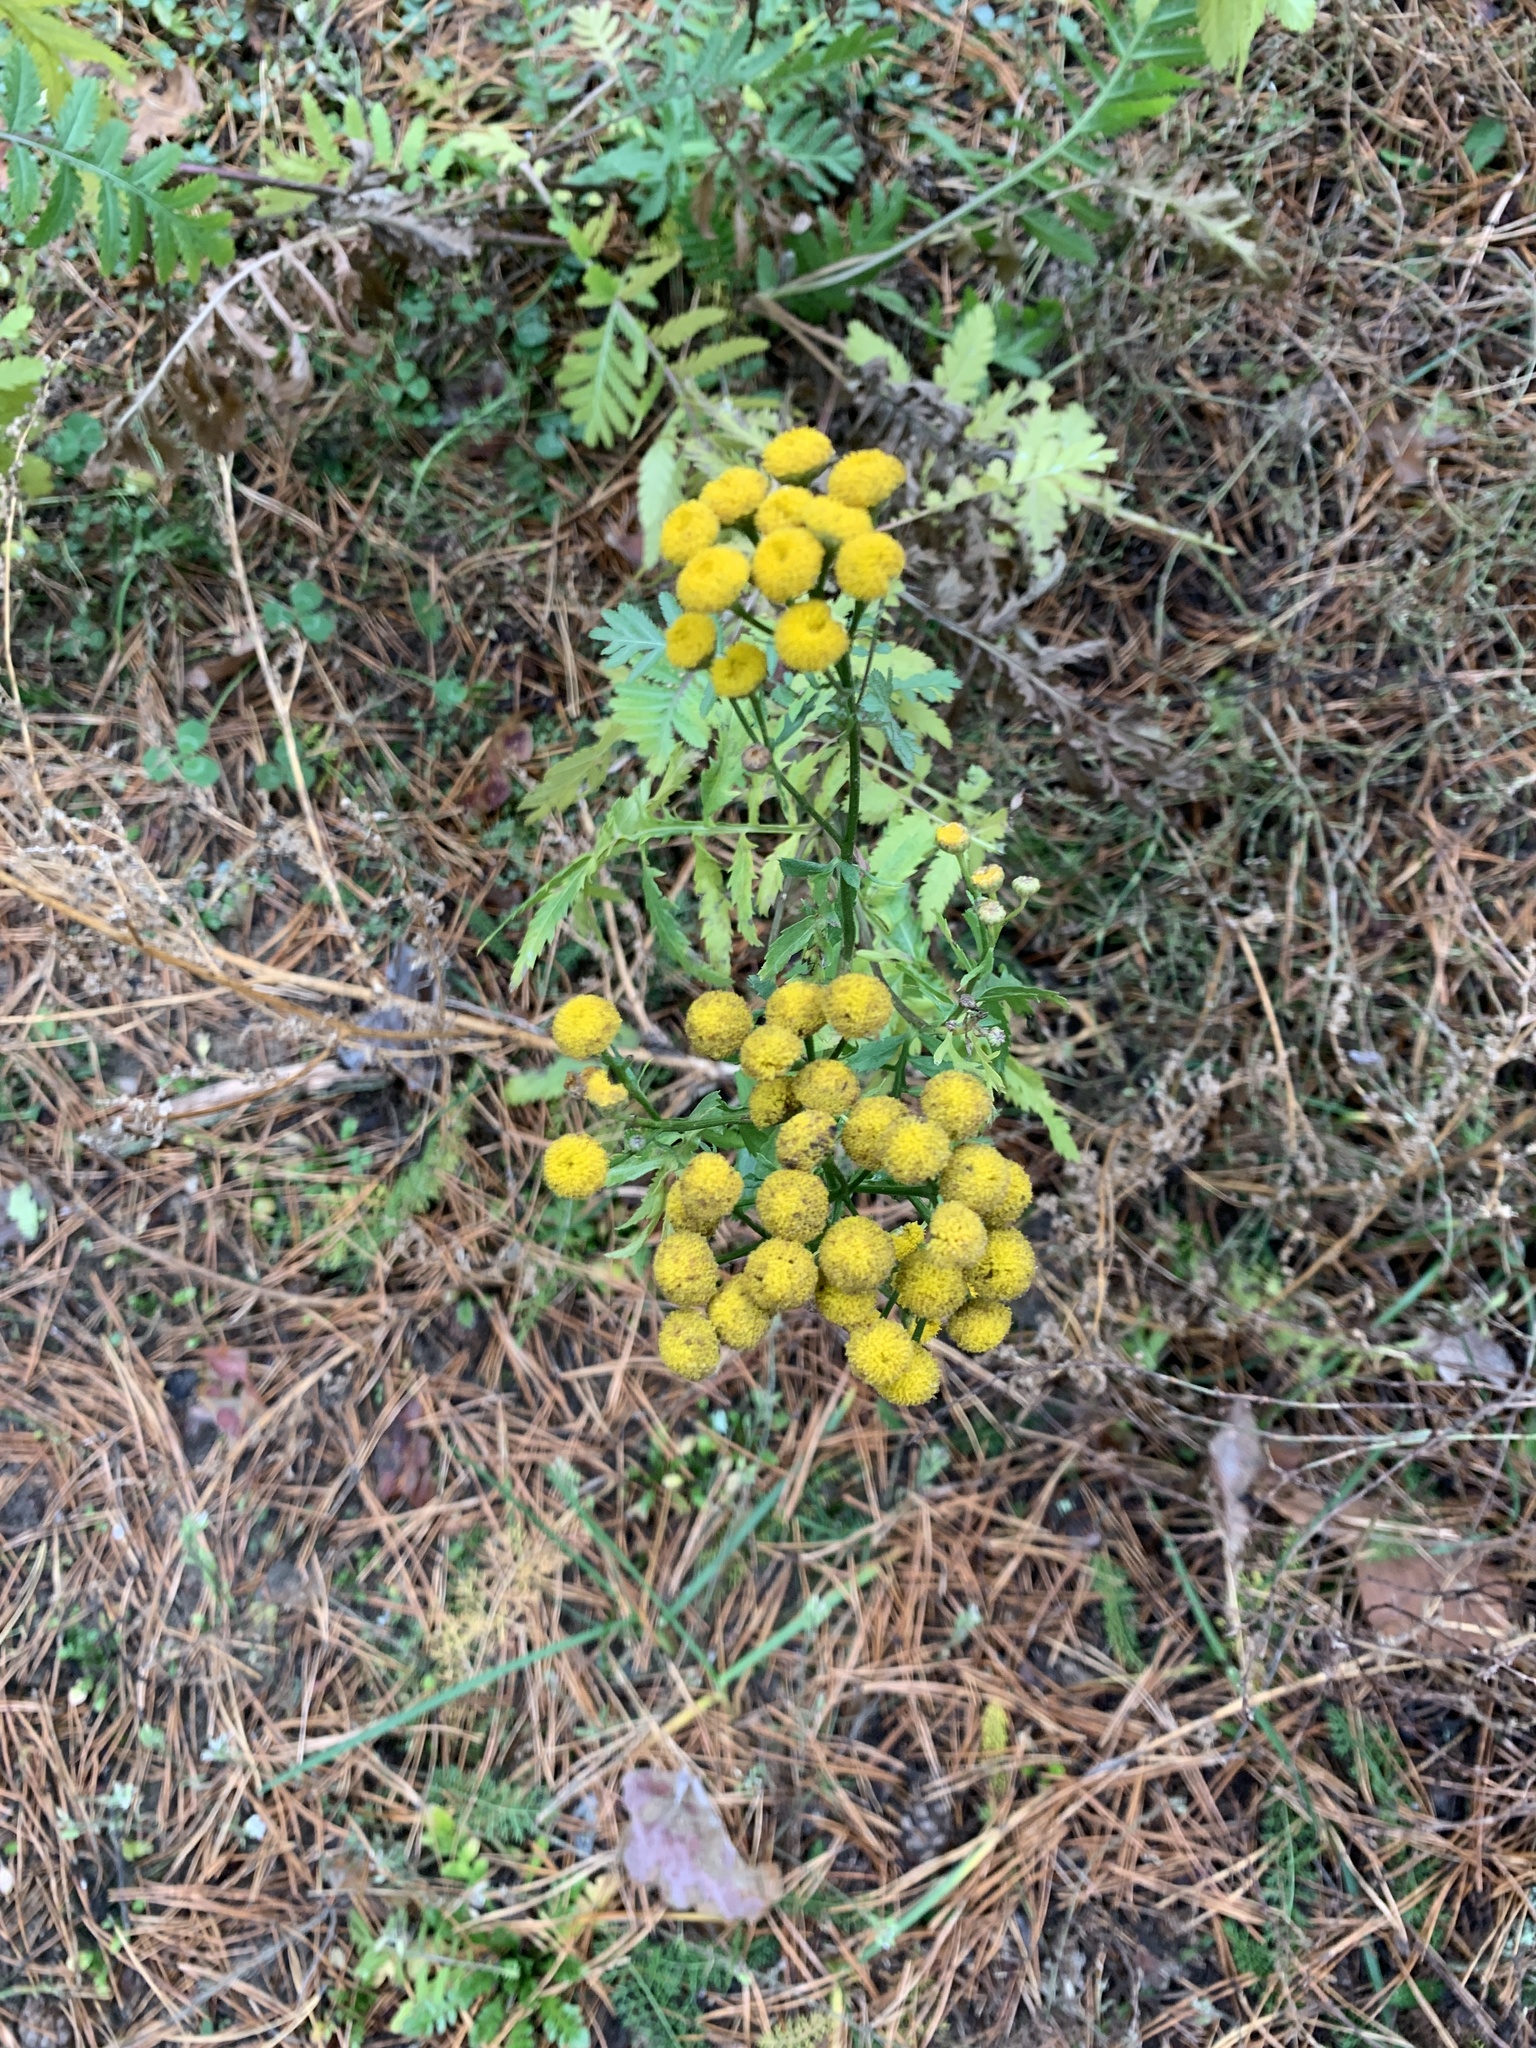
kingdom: Plantae
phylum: Tracheophyta
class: Magnoliopsida
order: Asterales
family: Asteraceae
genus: Tanacetum
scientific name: Tanacetum vulgare
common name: Common tansy
